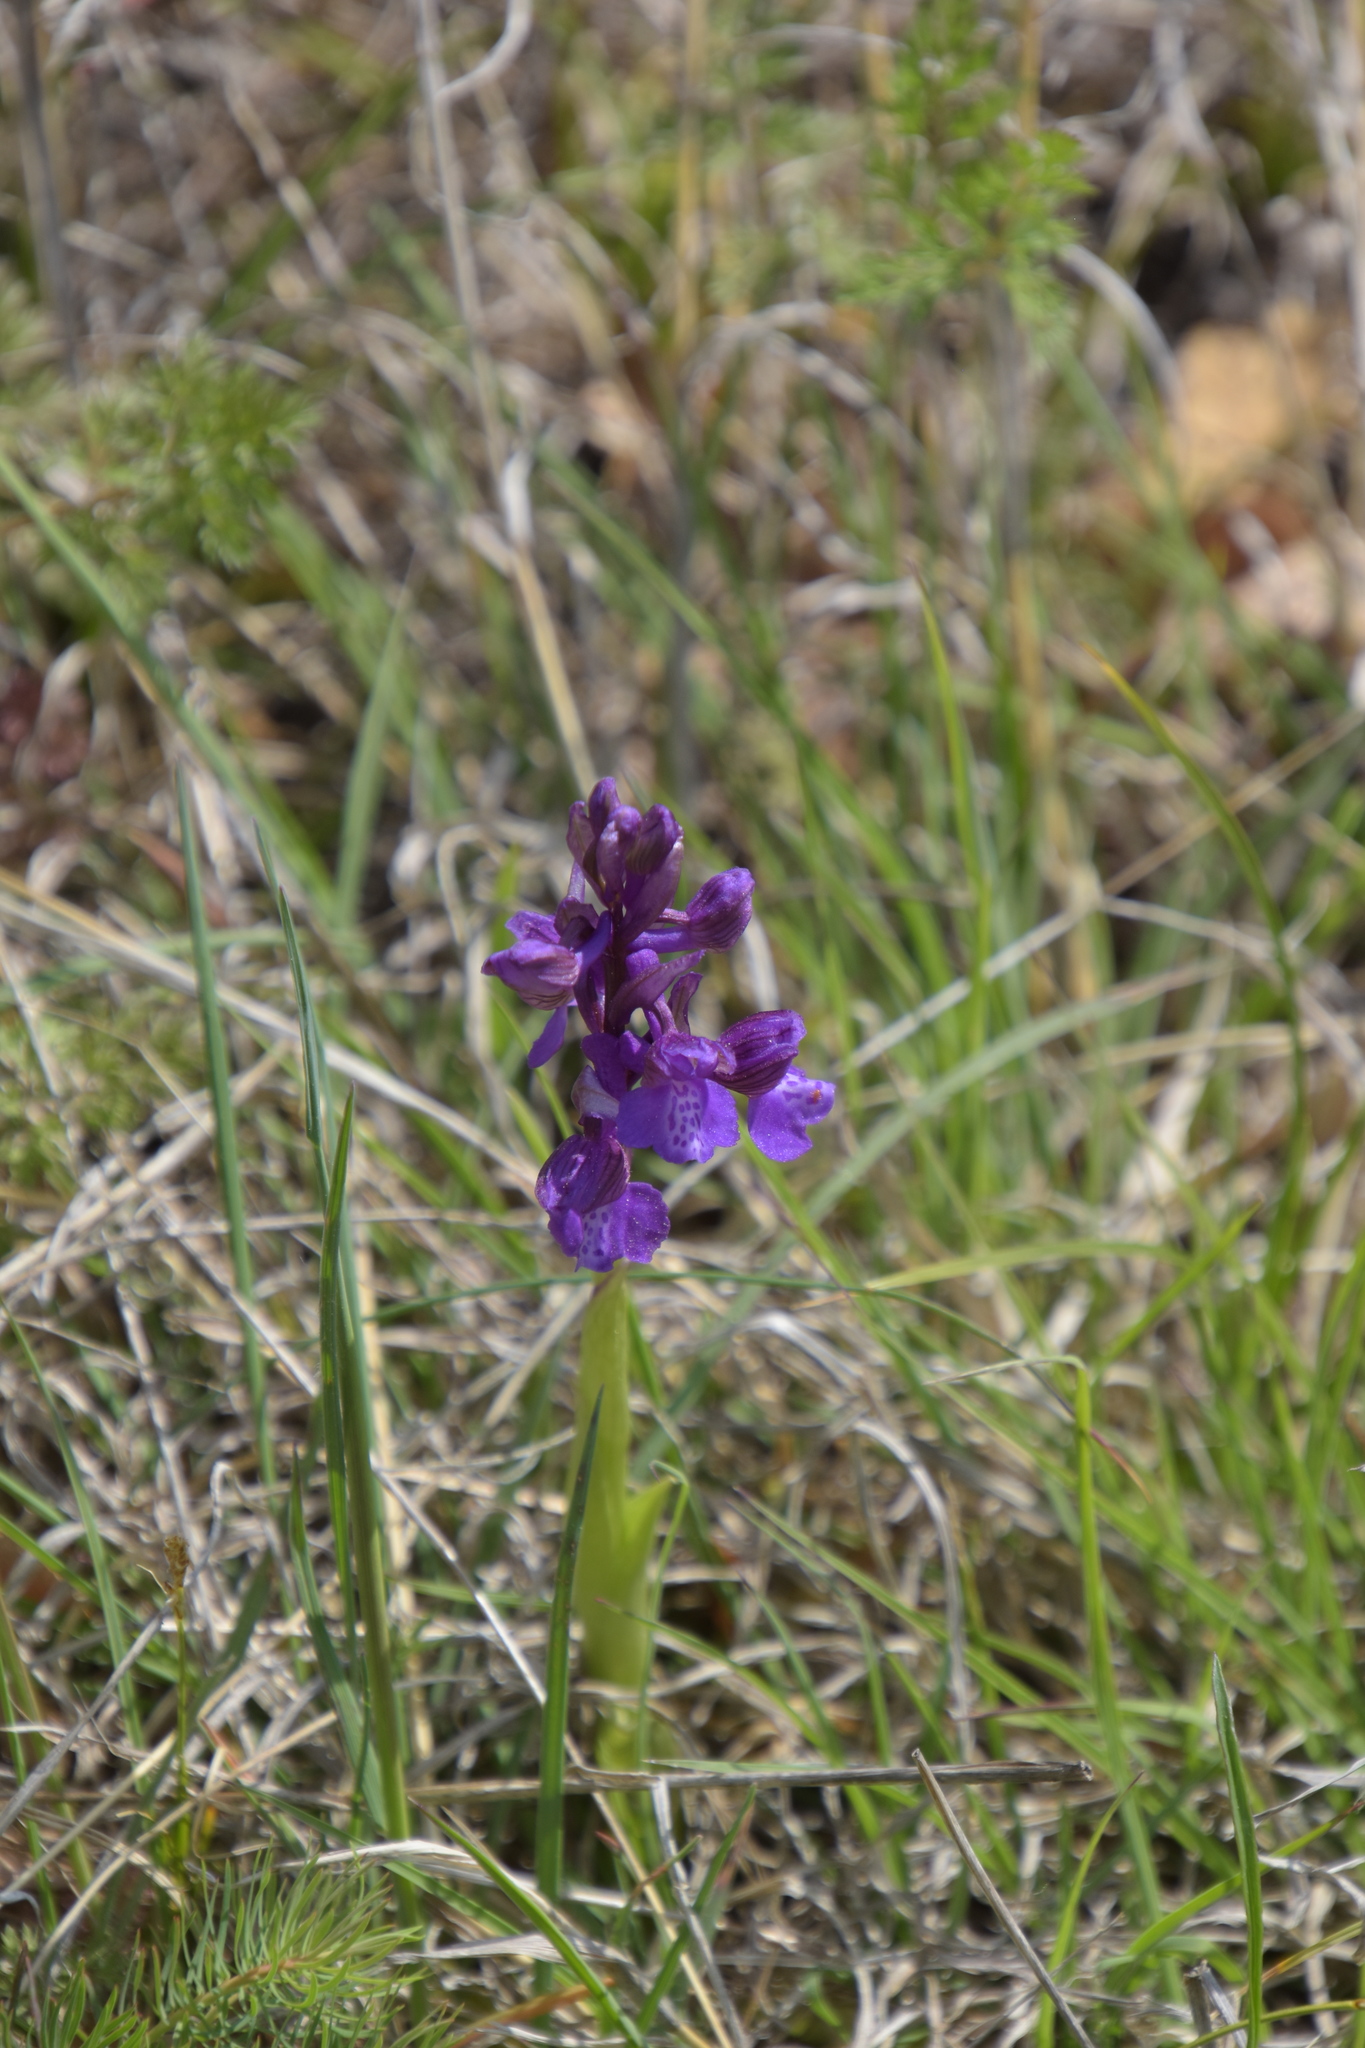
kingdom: Plantae
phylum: Tracheophyta
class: Liliopsida
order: Asparagales
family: Orchidaceae
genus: Anacamptis
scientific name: Anacamptis morio
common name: Green-winged orchid
